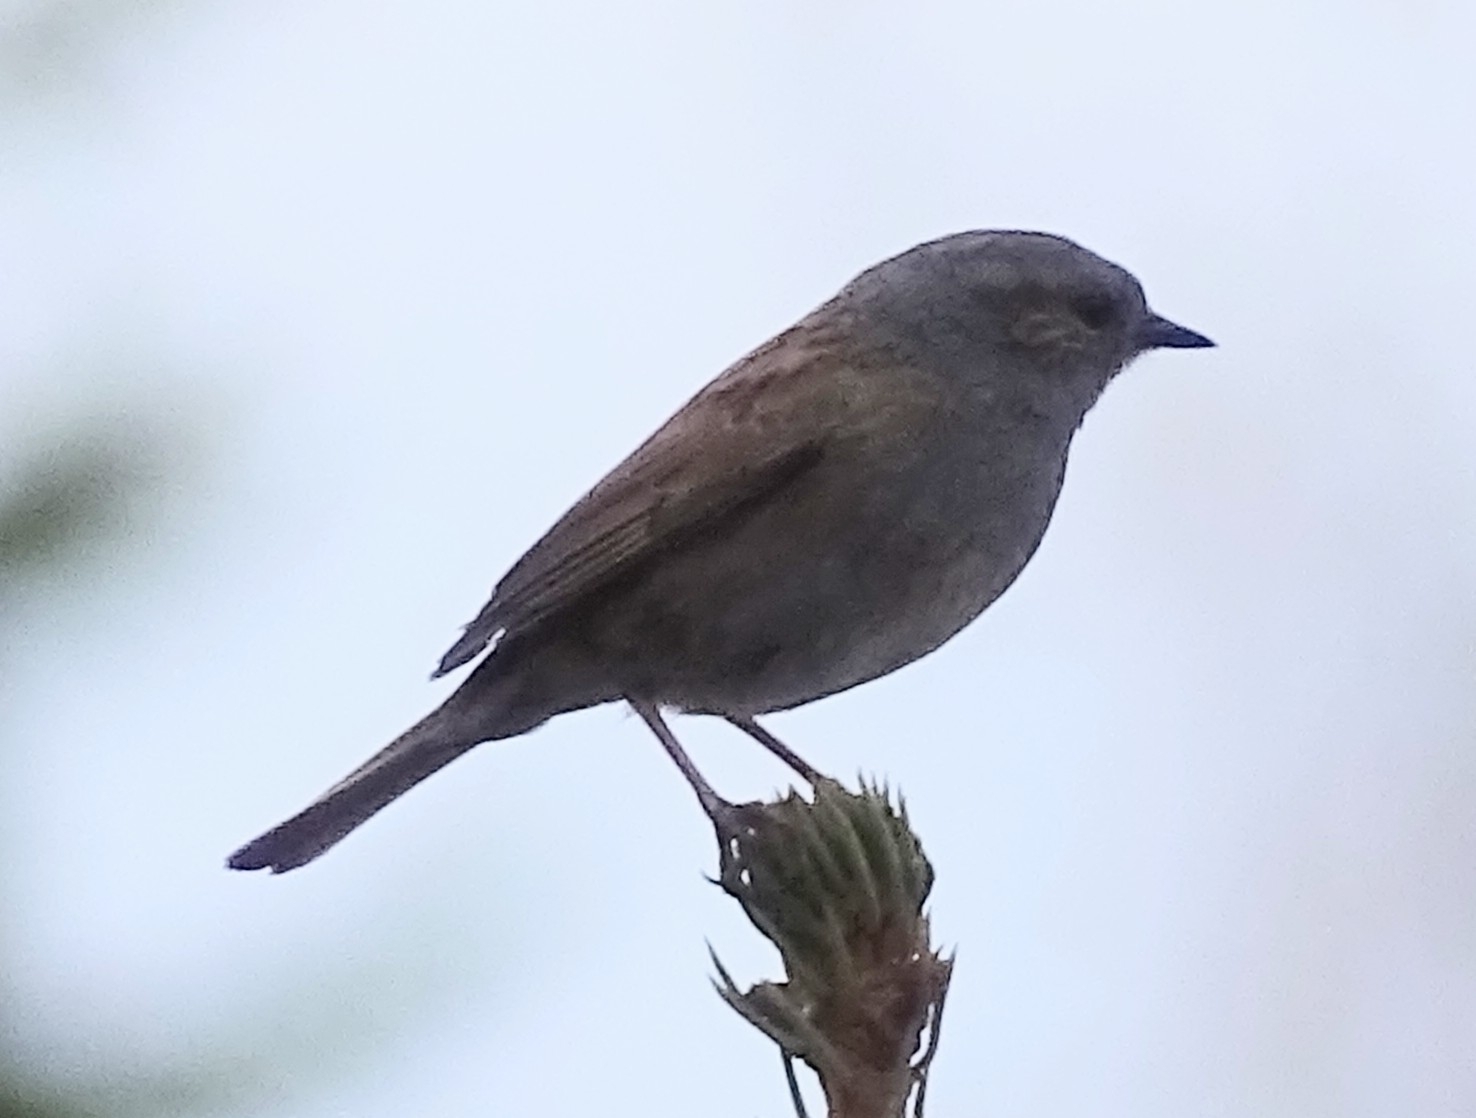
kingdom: Animalia
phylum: Chordata
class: Aves
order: Passeriformes
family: Prunellidae
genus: Prunella
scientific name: Prunella modularis
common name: Dunnock
